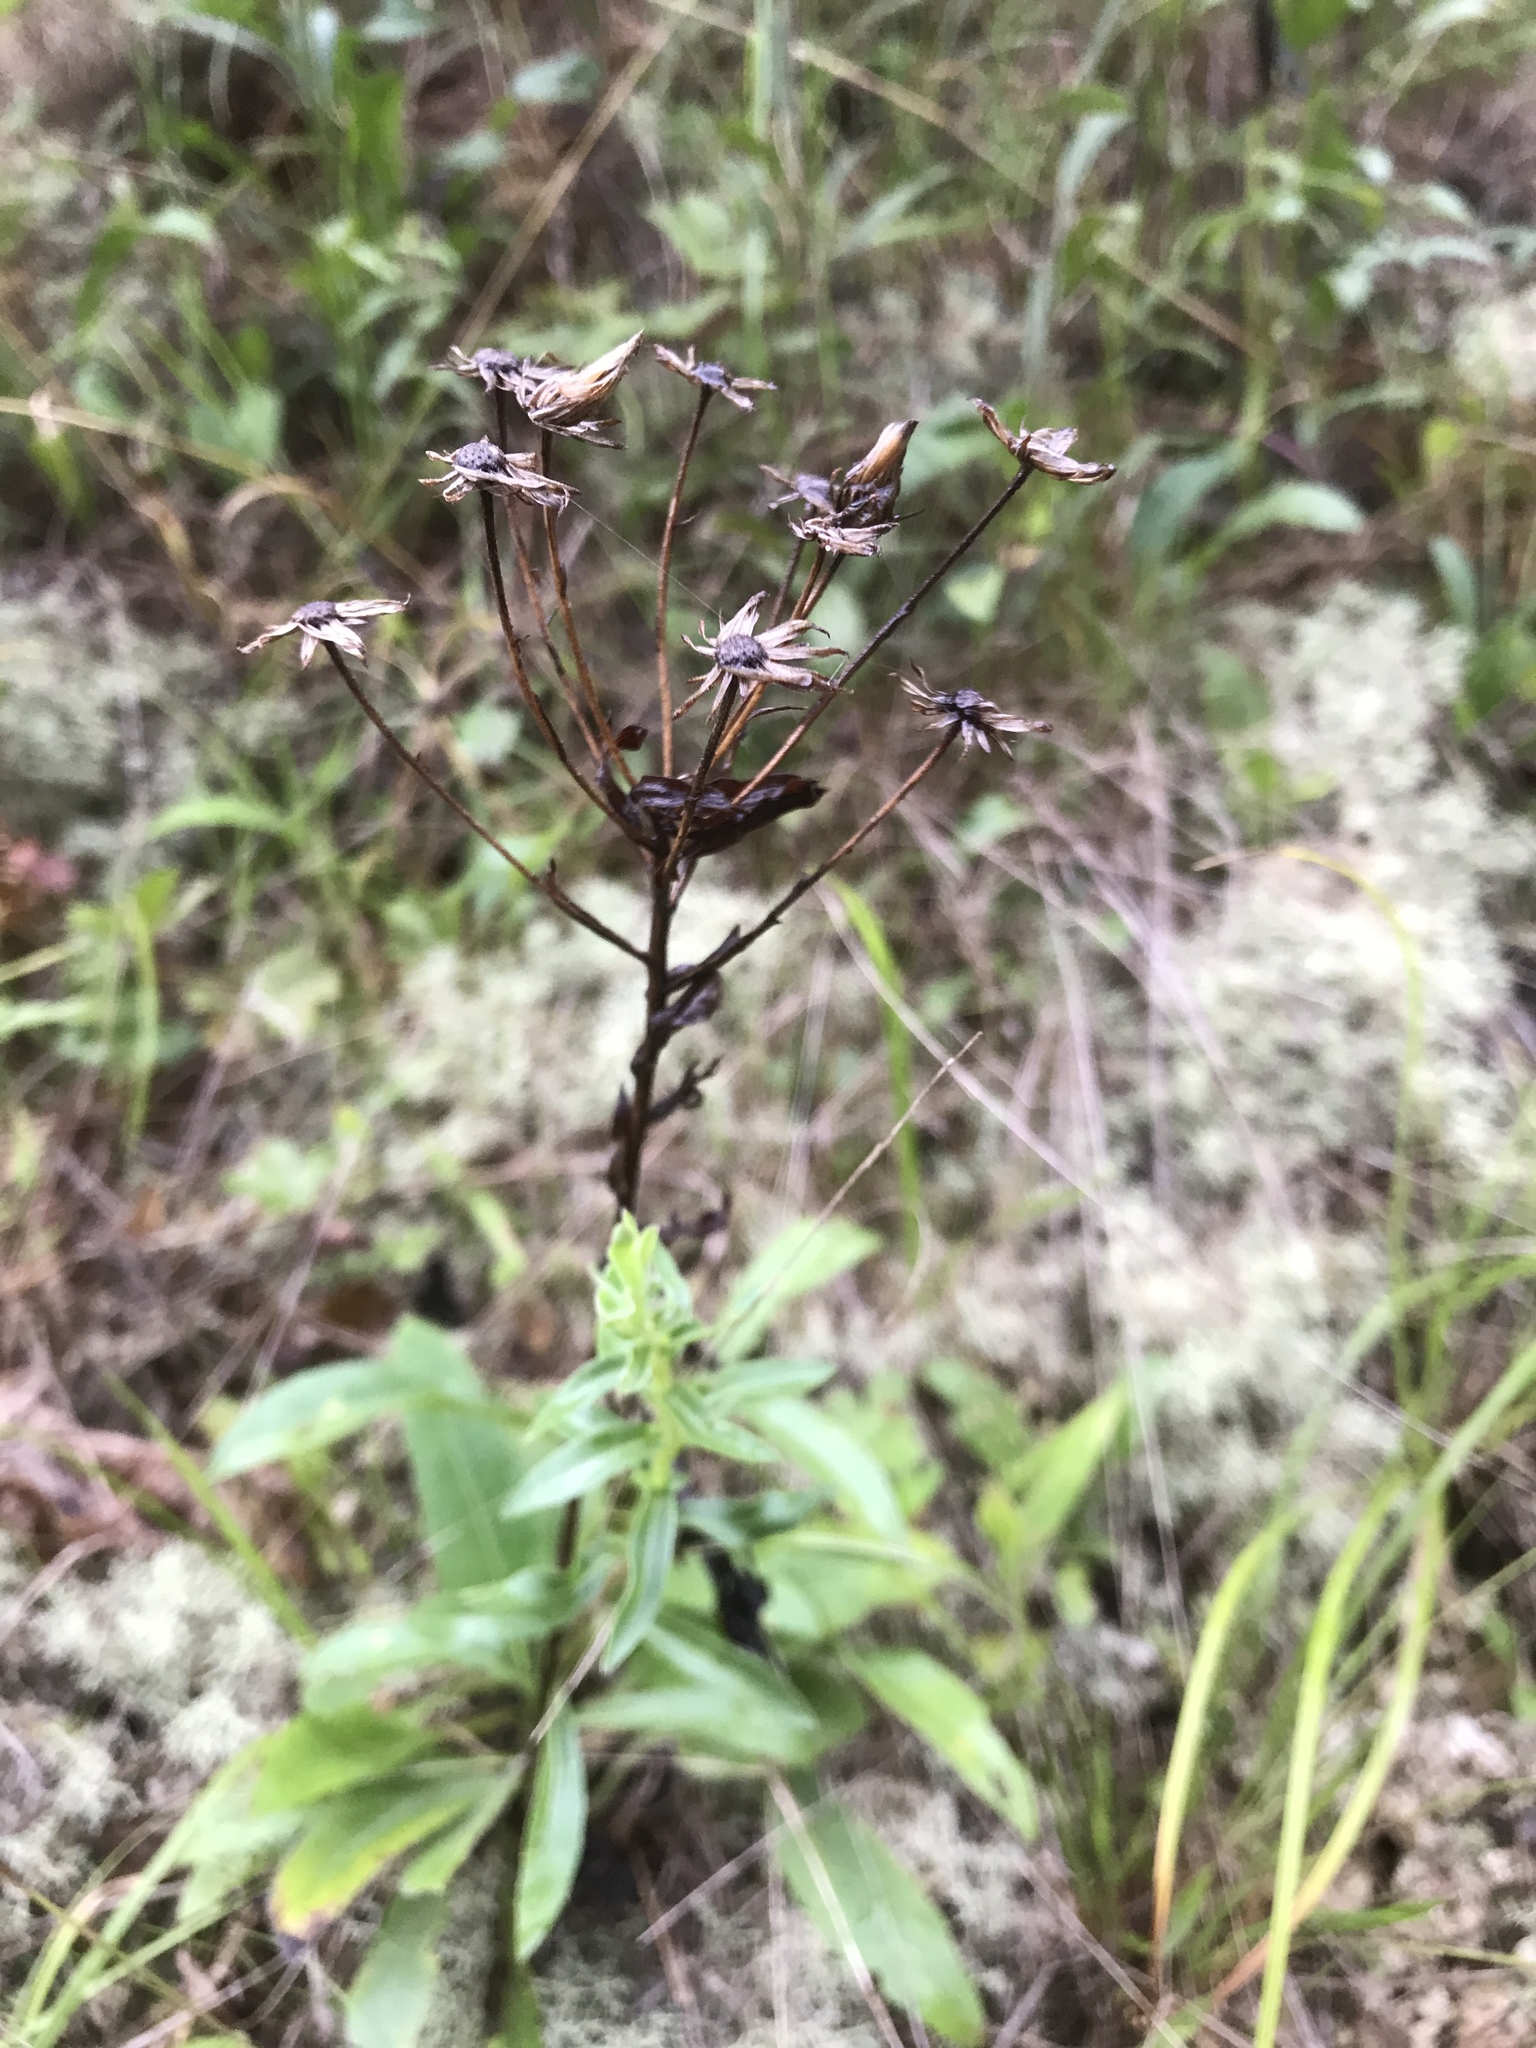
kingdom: Plantae
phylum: Tracheophyta
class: Magnoliopsida
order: Asterales
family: Asteraceae
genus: Chrysopsis
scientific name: Chrysopsis mariana
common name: Maryland golden-aster
